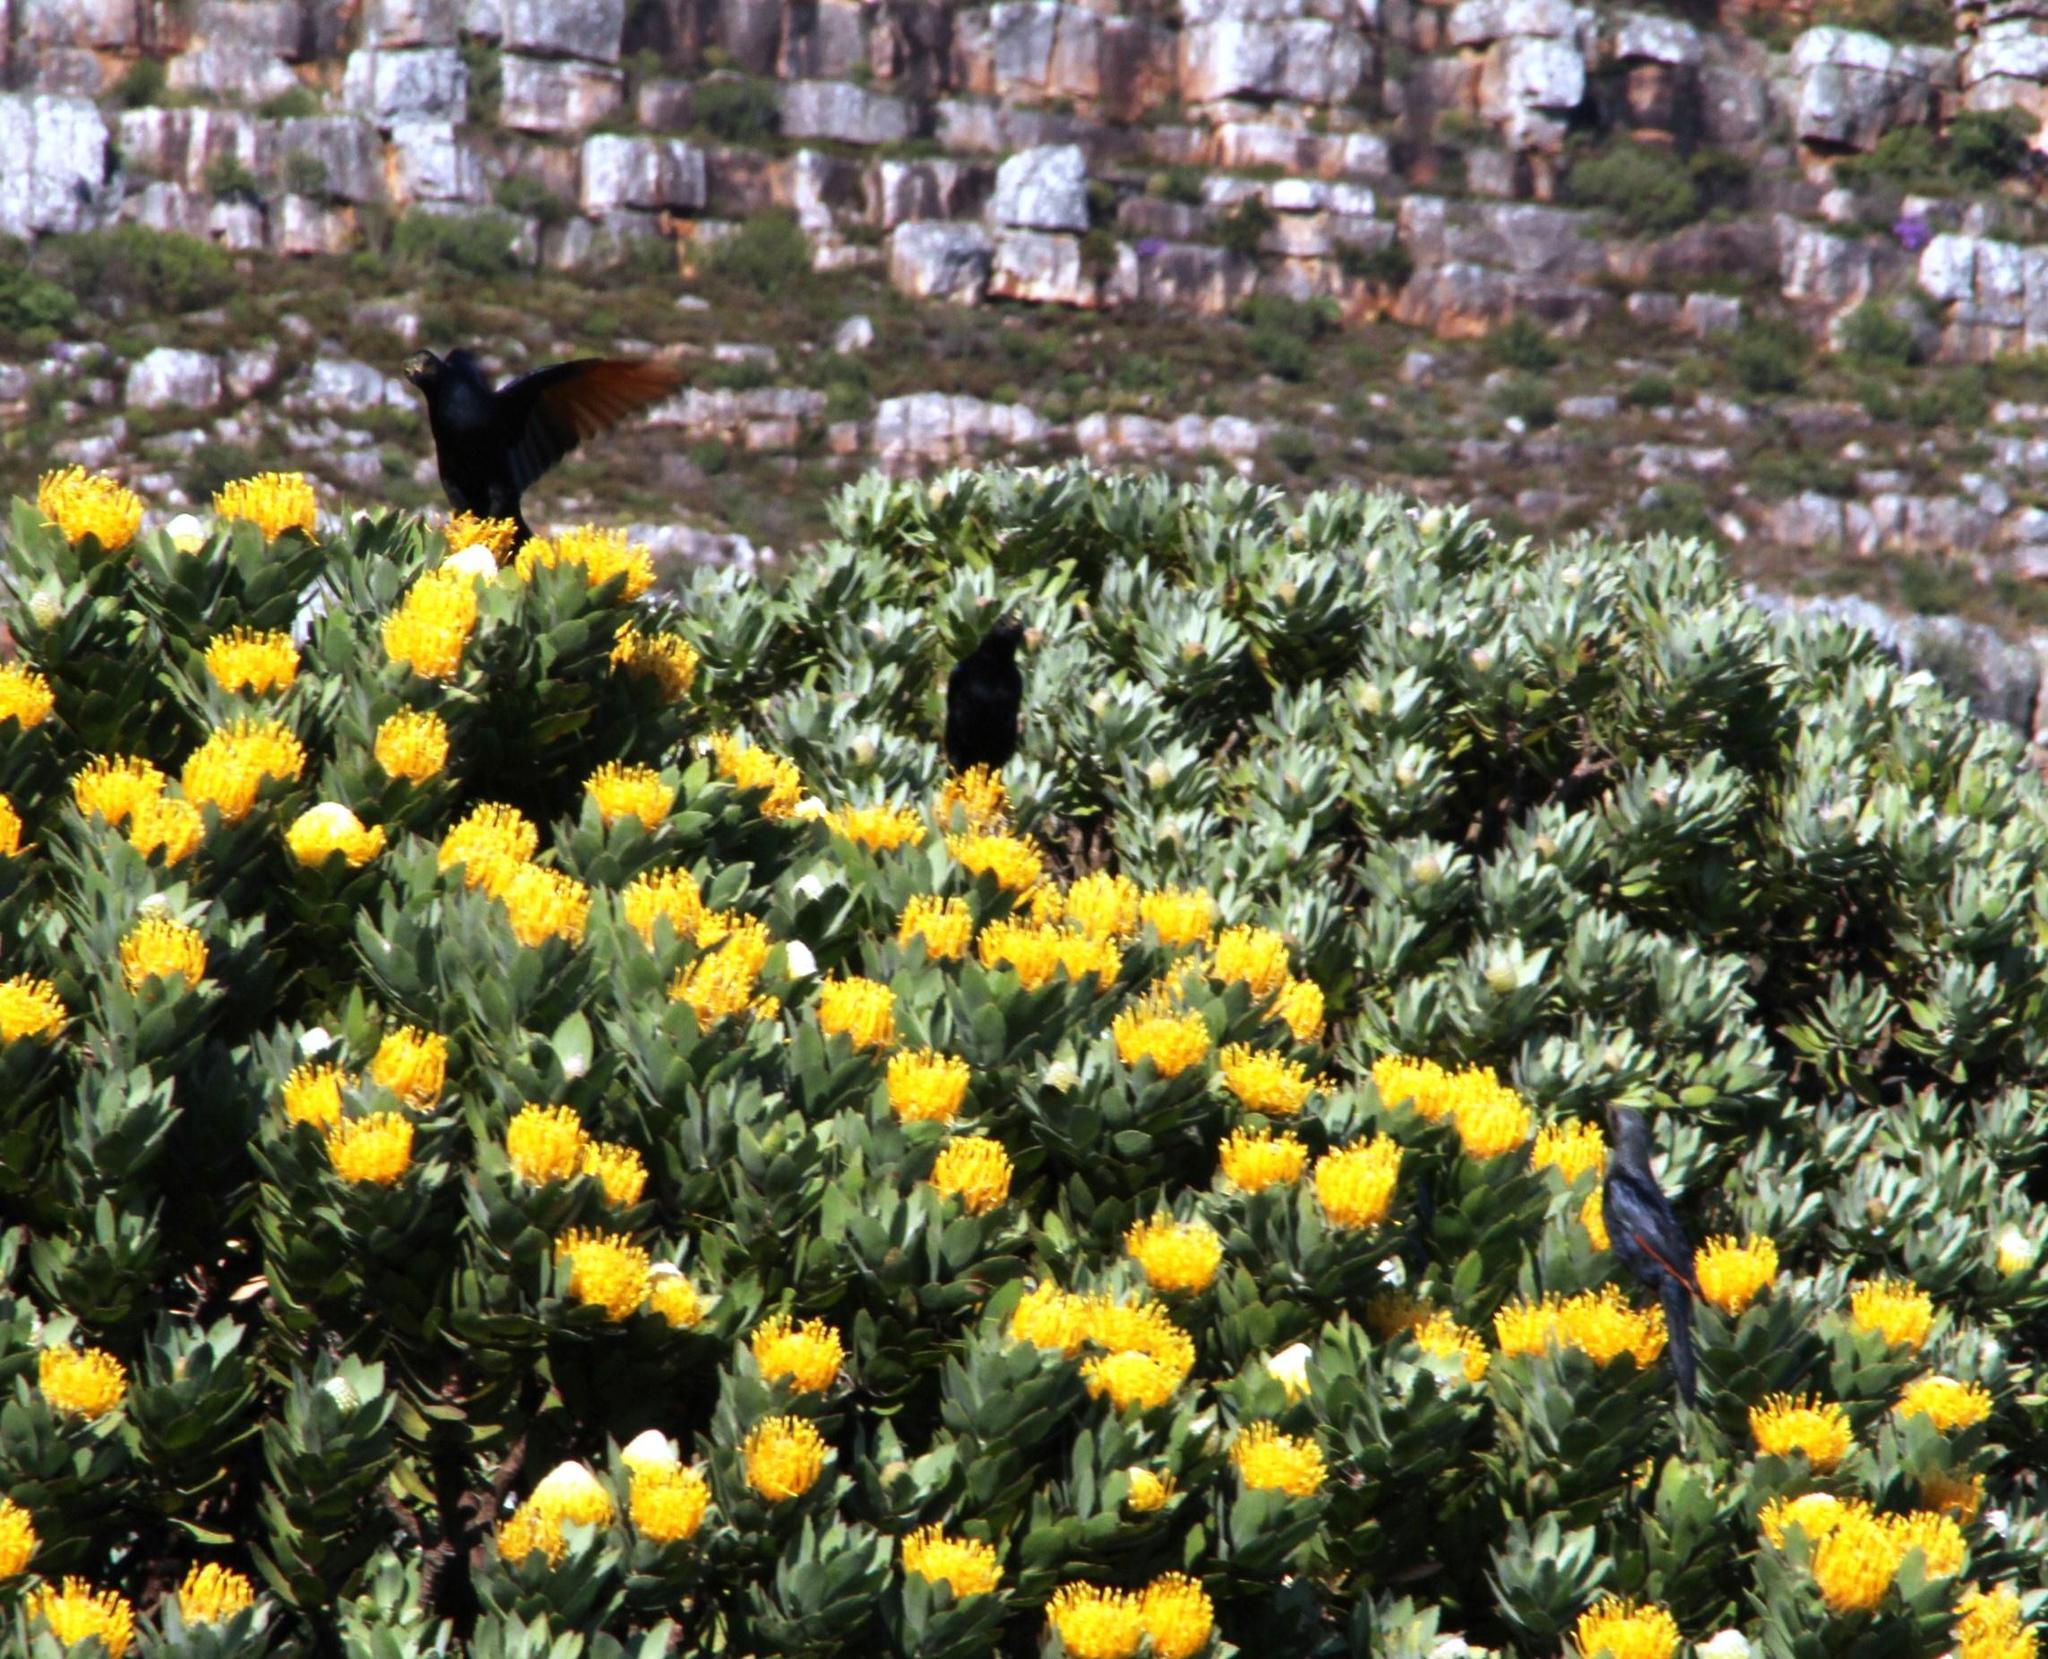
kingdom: Animalia
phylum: Chordata
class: Aves
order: Passeriformes
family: Sturnidae
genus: Onychognathus
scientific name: Onychognathus morio
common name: Red-winged starling
